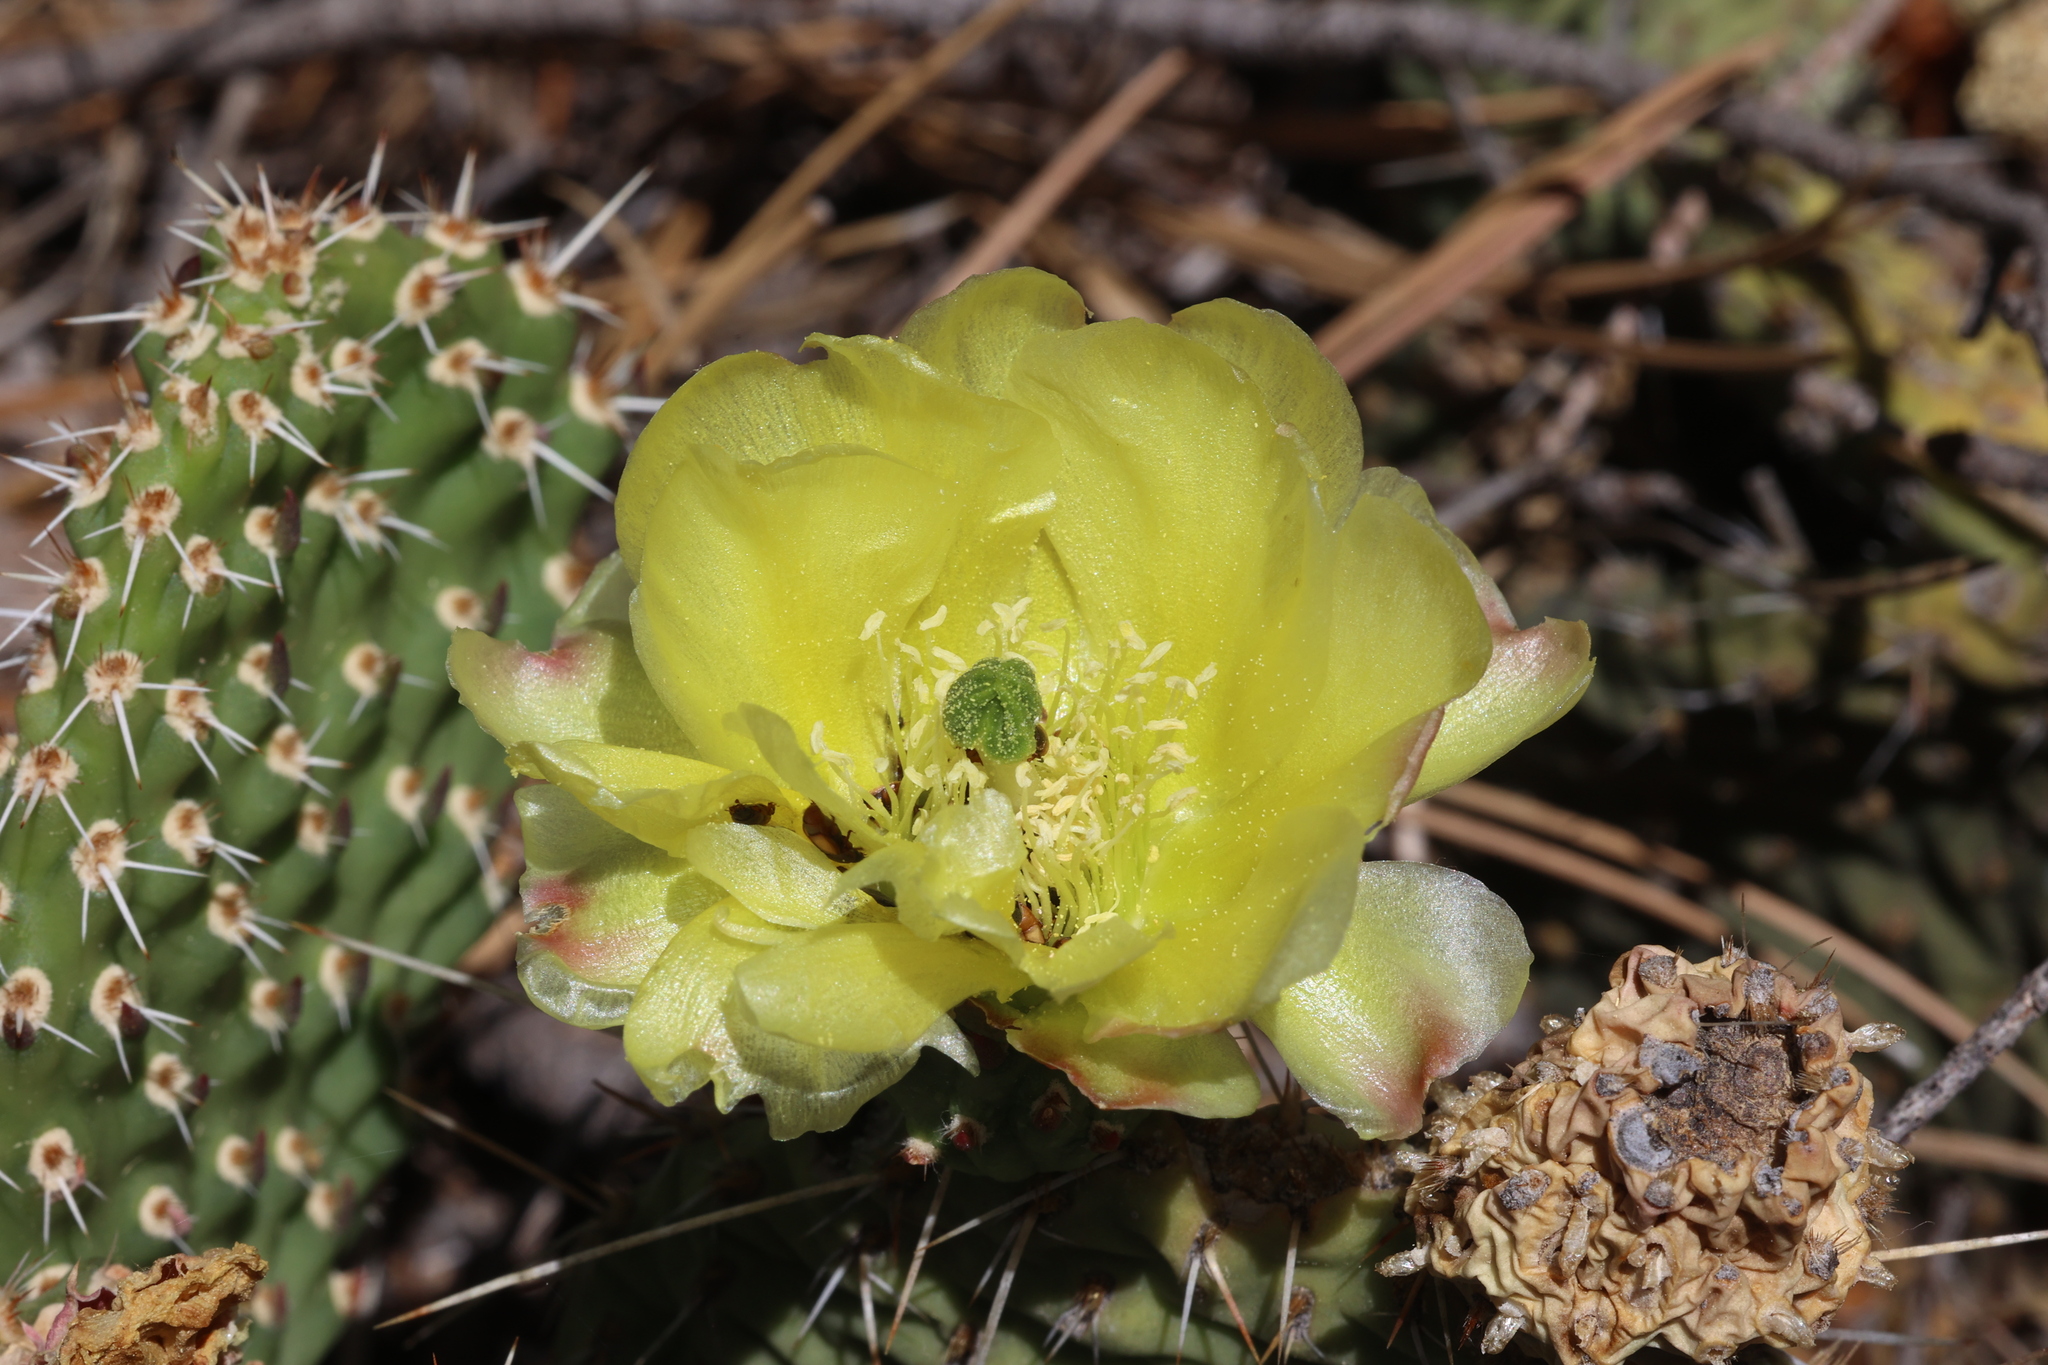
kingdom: Plantae
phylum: Tracheophyta
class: Magnoliopsida
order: Caryophyllales
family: Cactaceae
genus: Opuntia
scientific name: Opuntia polyacantha
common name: Plains prickly-pear
